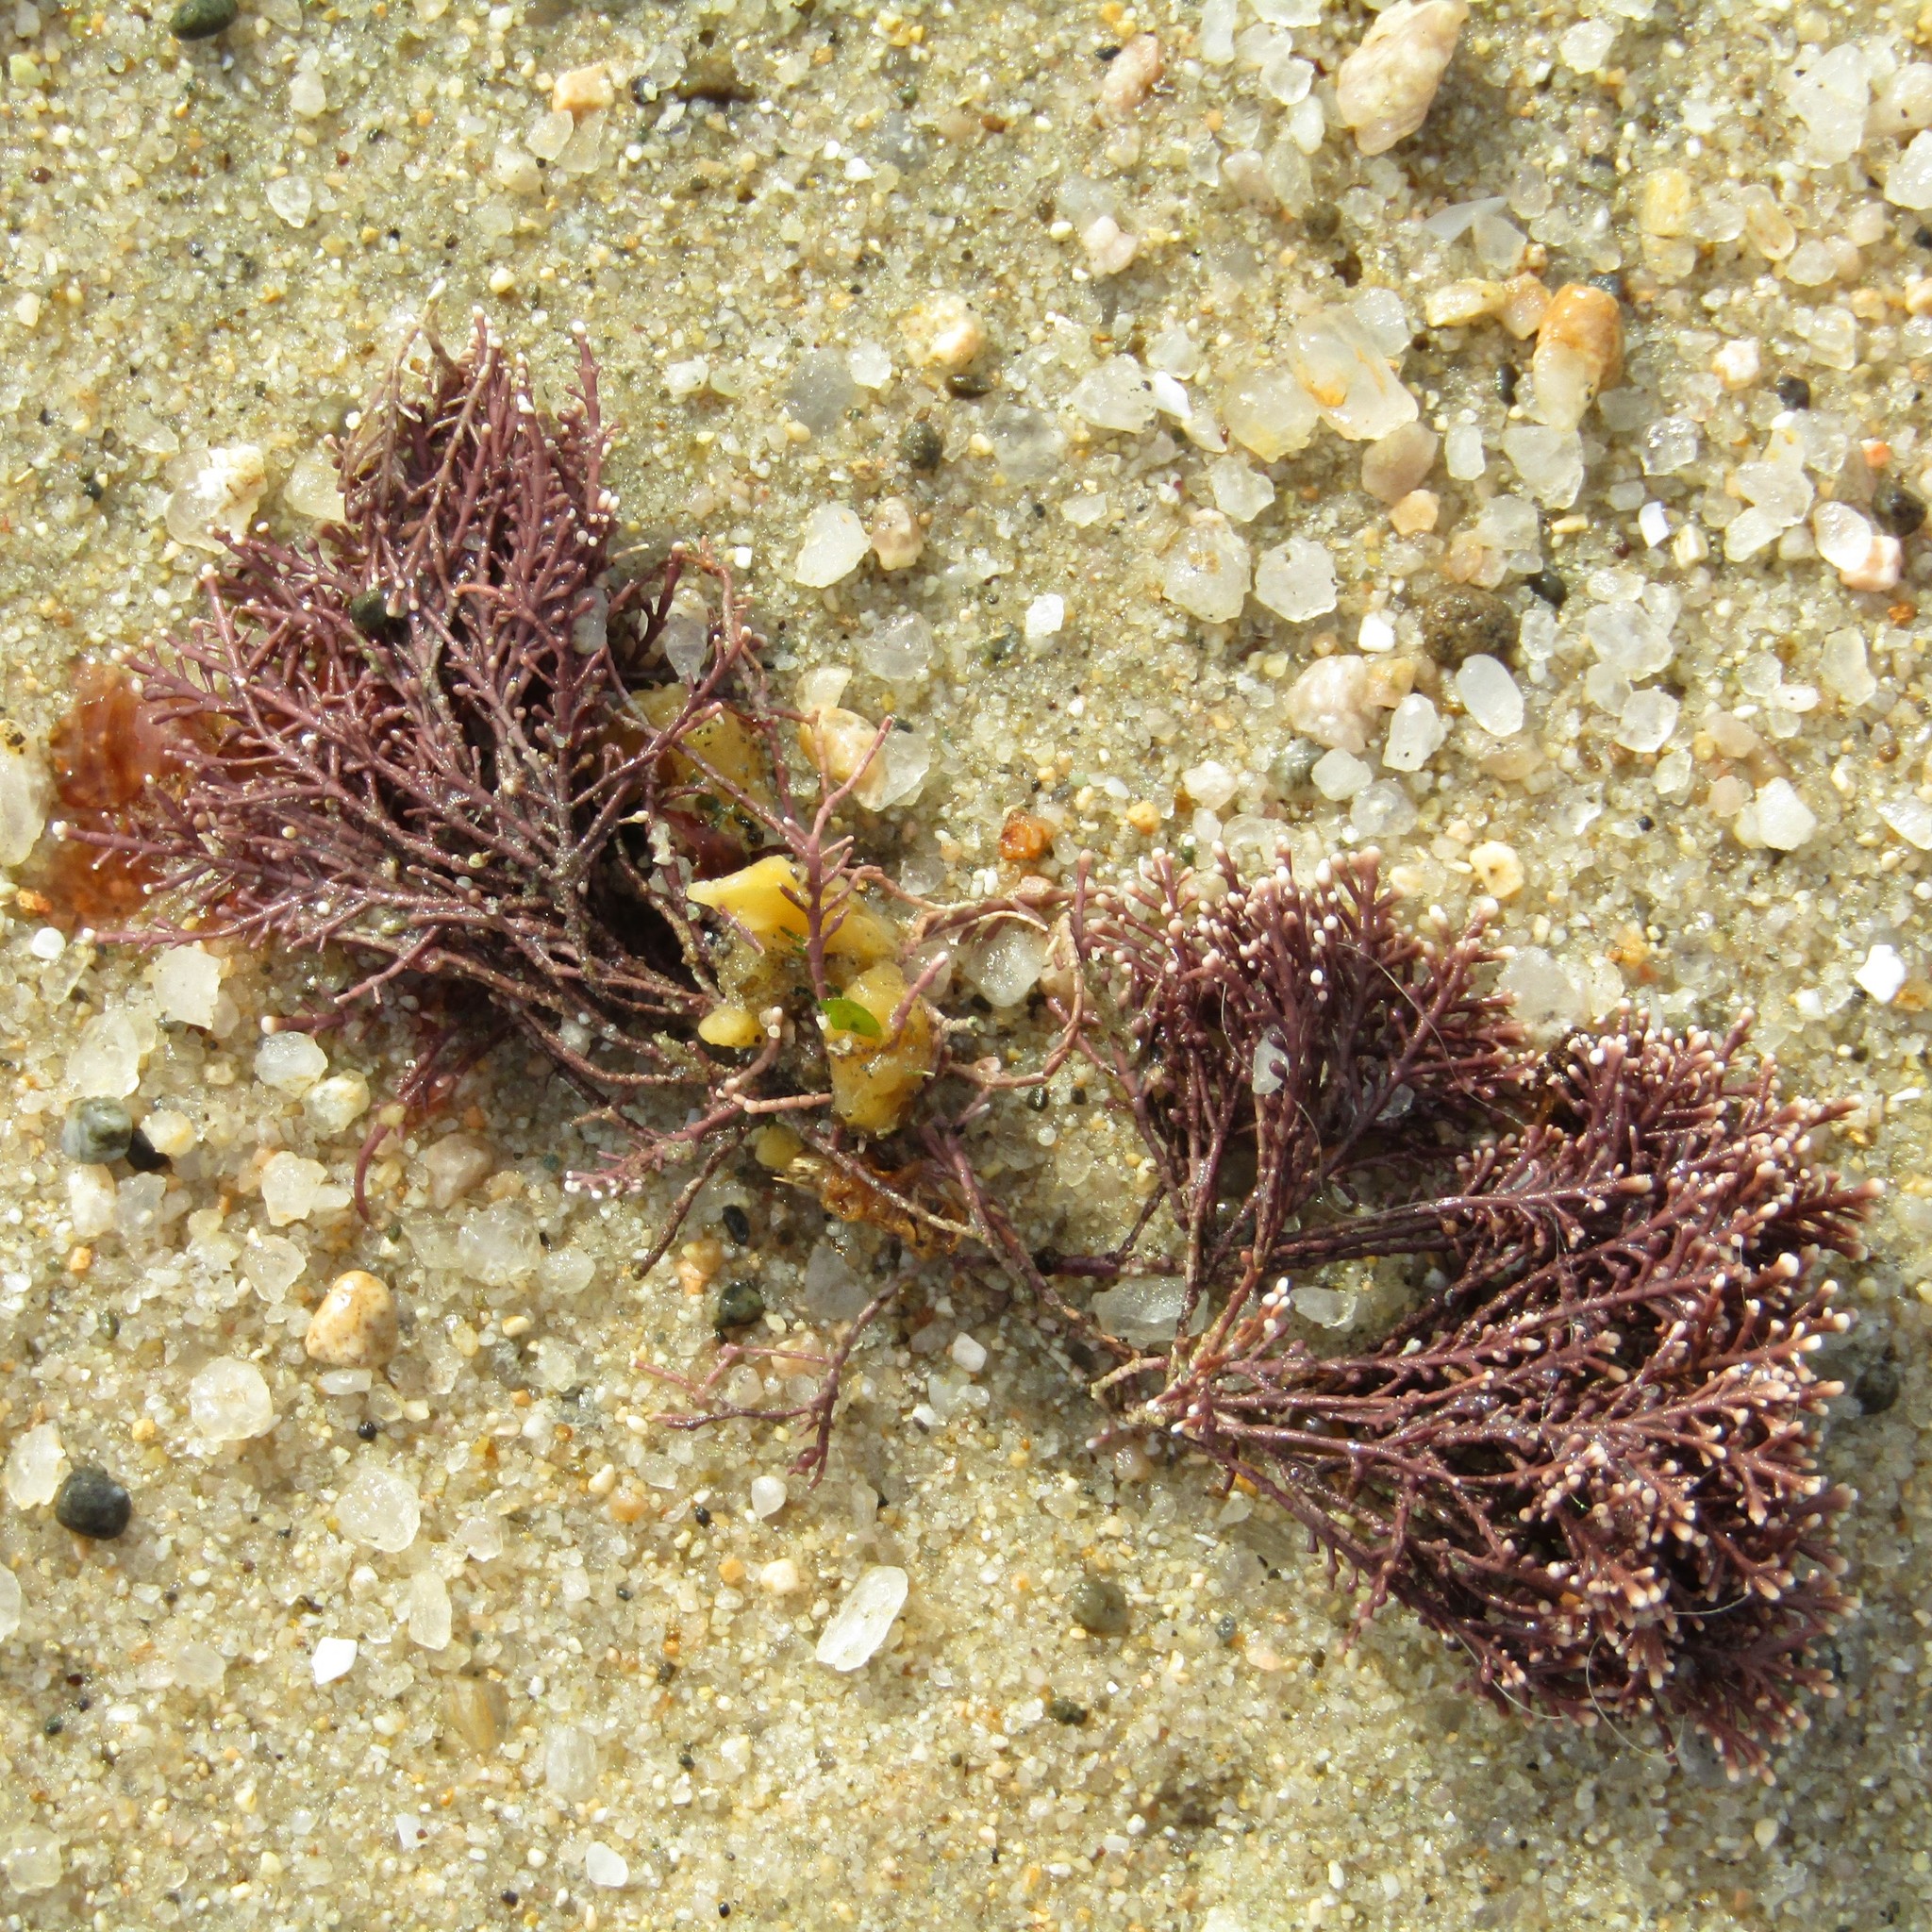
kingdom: Plantae
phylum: Rhodophyta
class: Florideophyceae
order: Corallinales
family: Corallinaceae
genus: Corallina
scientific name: Corallina officinalis
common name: Coral weed
